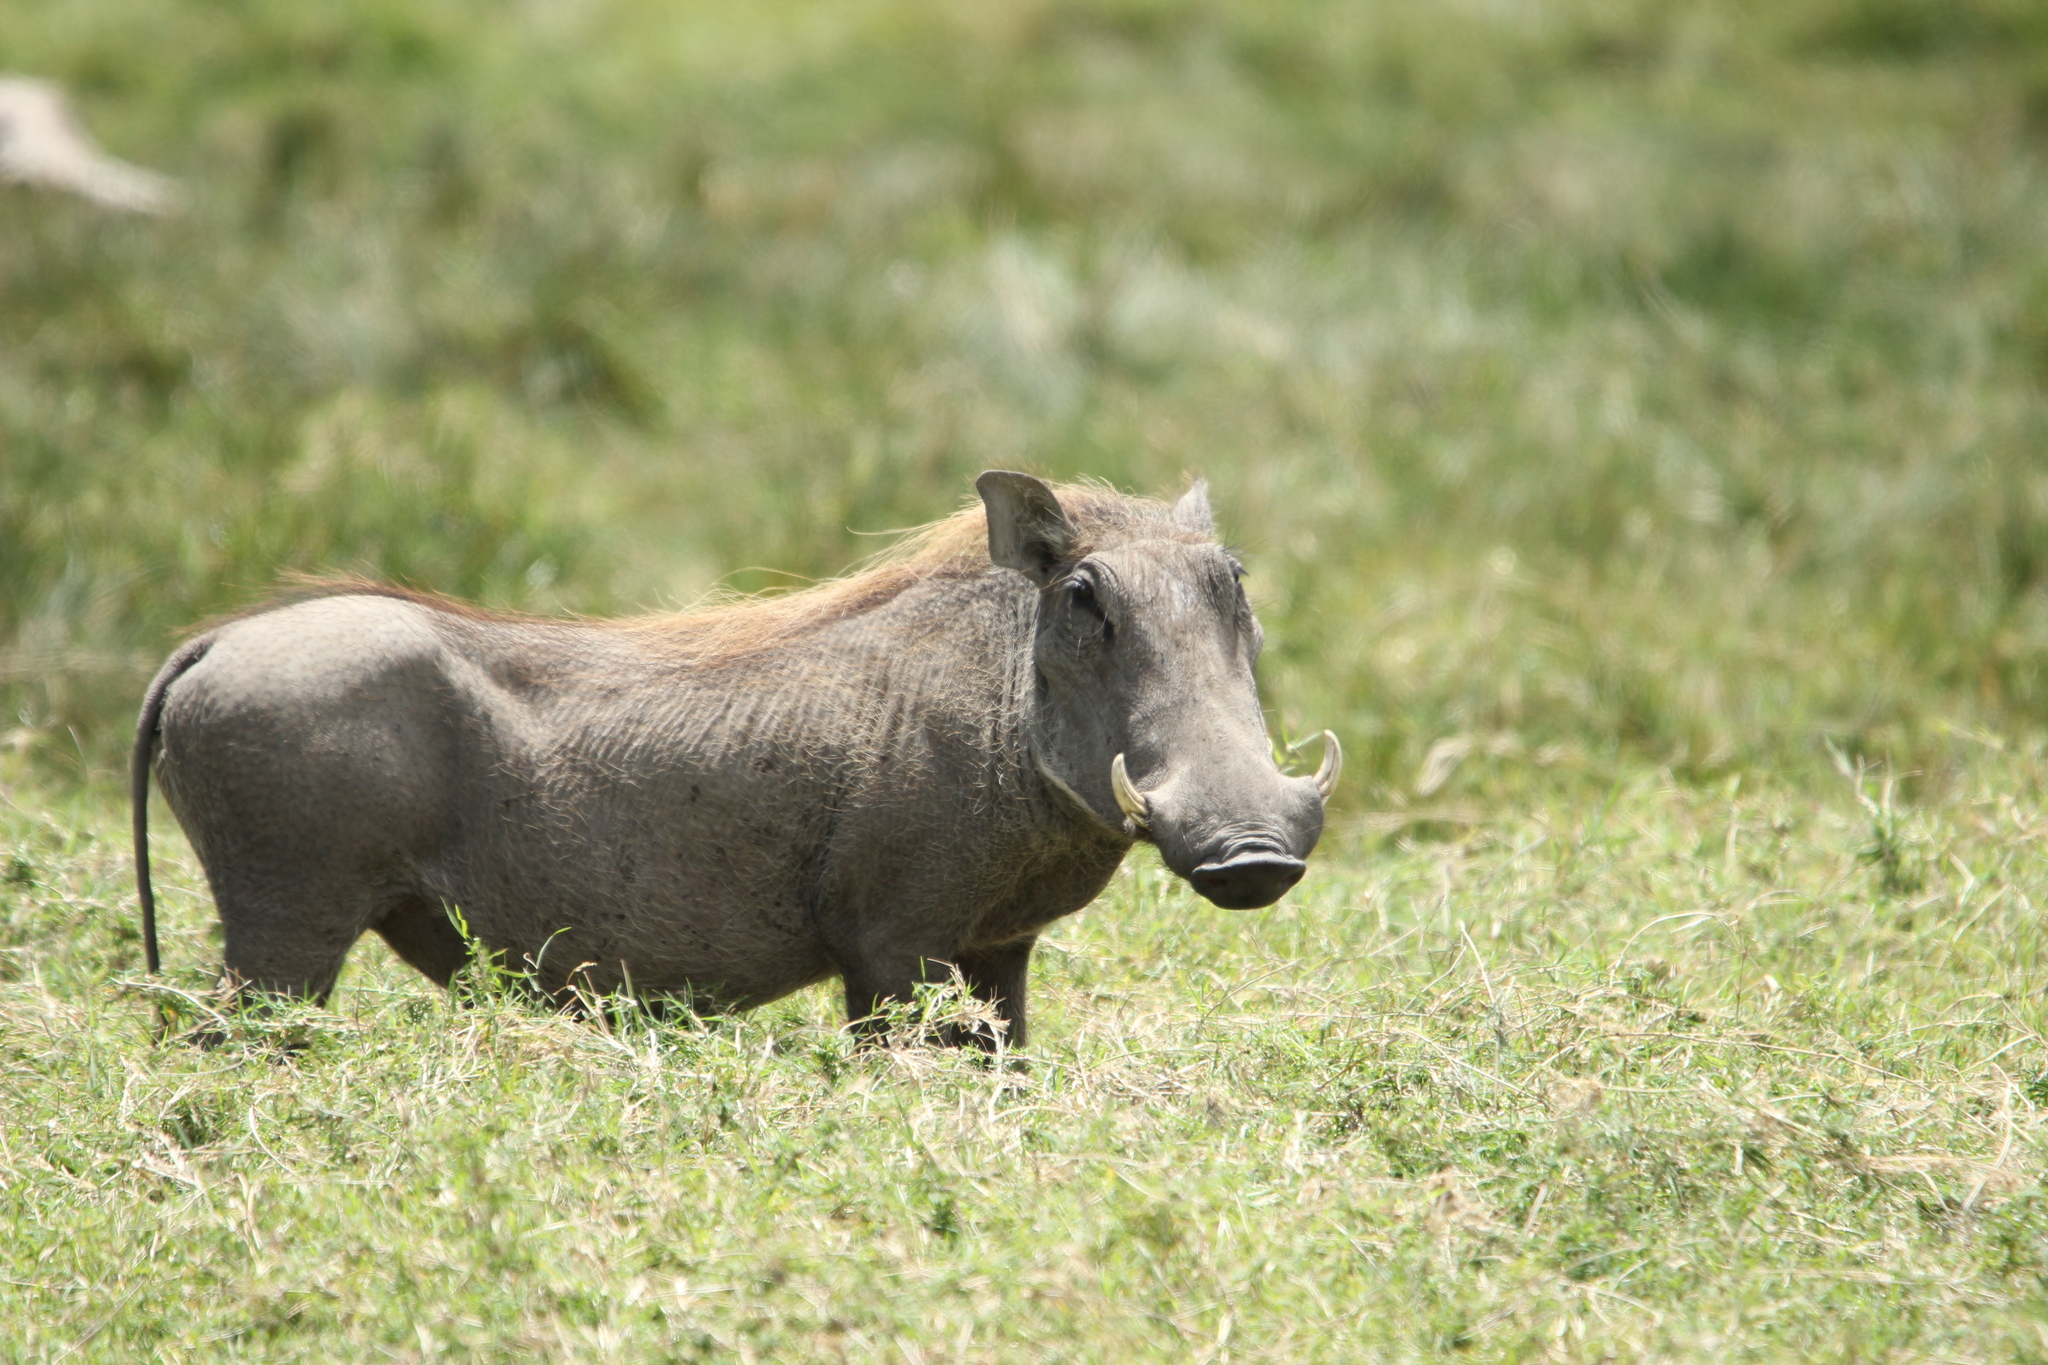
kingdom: Animalia
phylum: Chordata
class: Mammalia
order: Artiodactyla
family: Suidae
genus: Phacochoerus
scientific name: Phacochoerus africanus
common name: Common warthog
